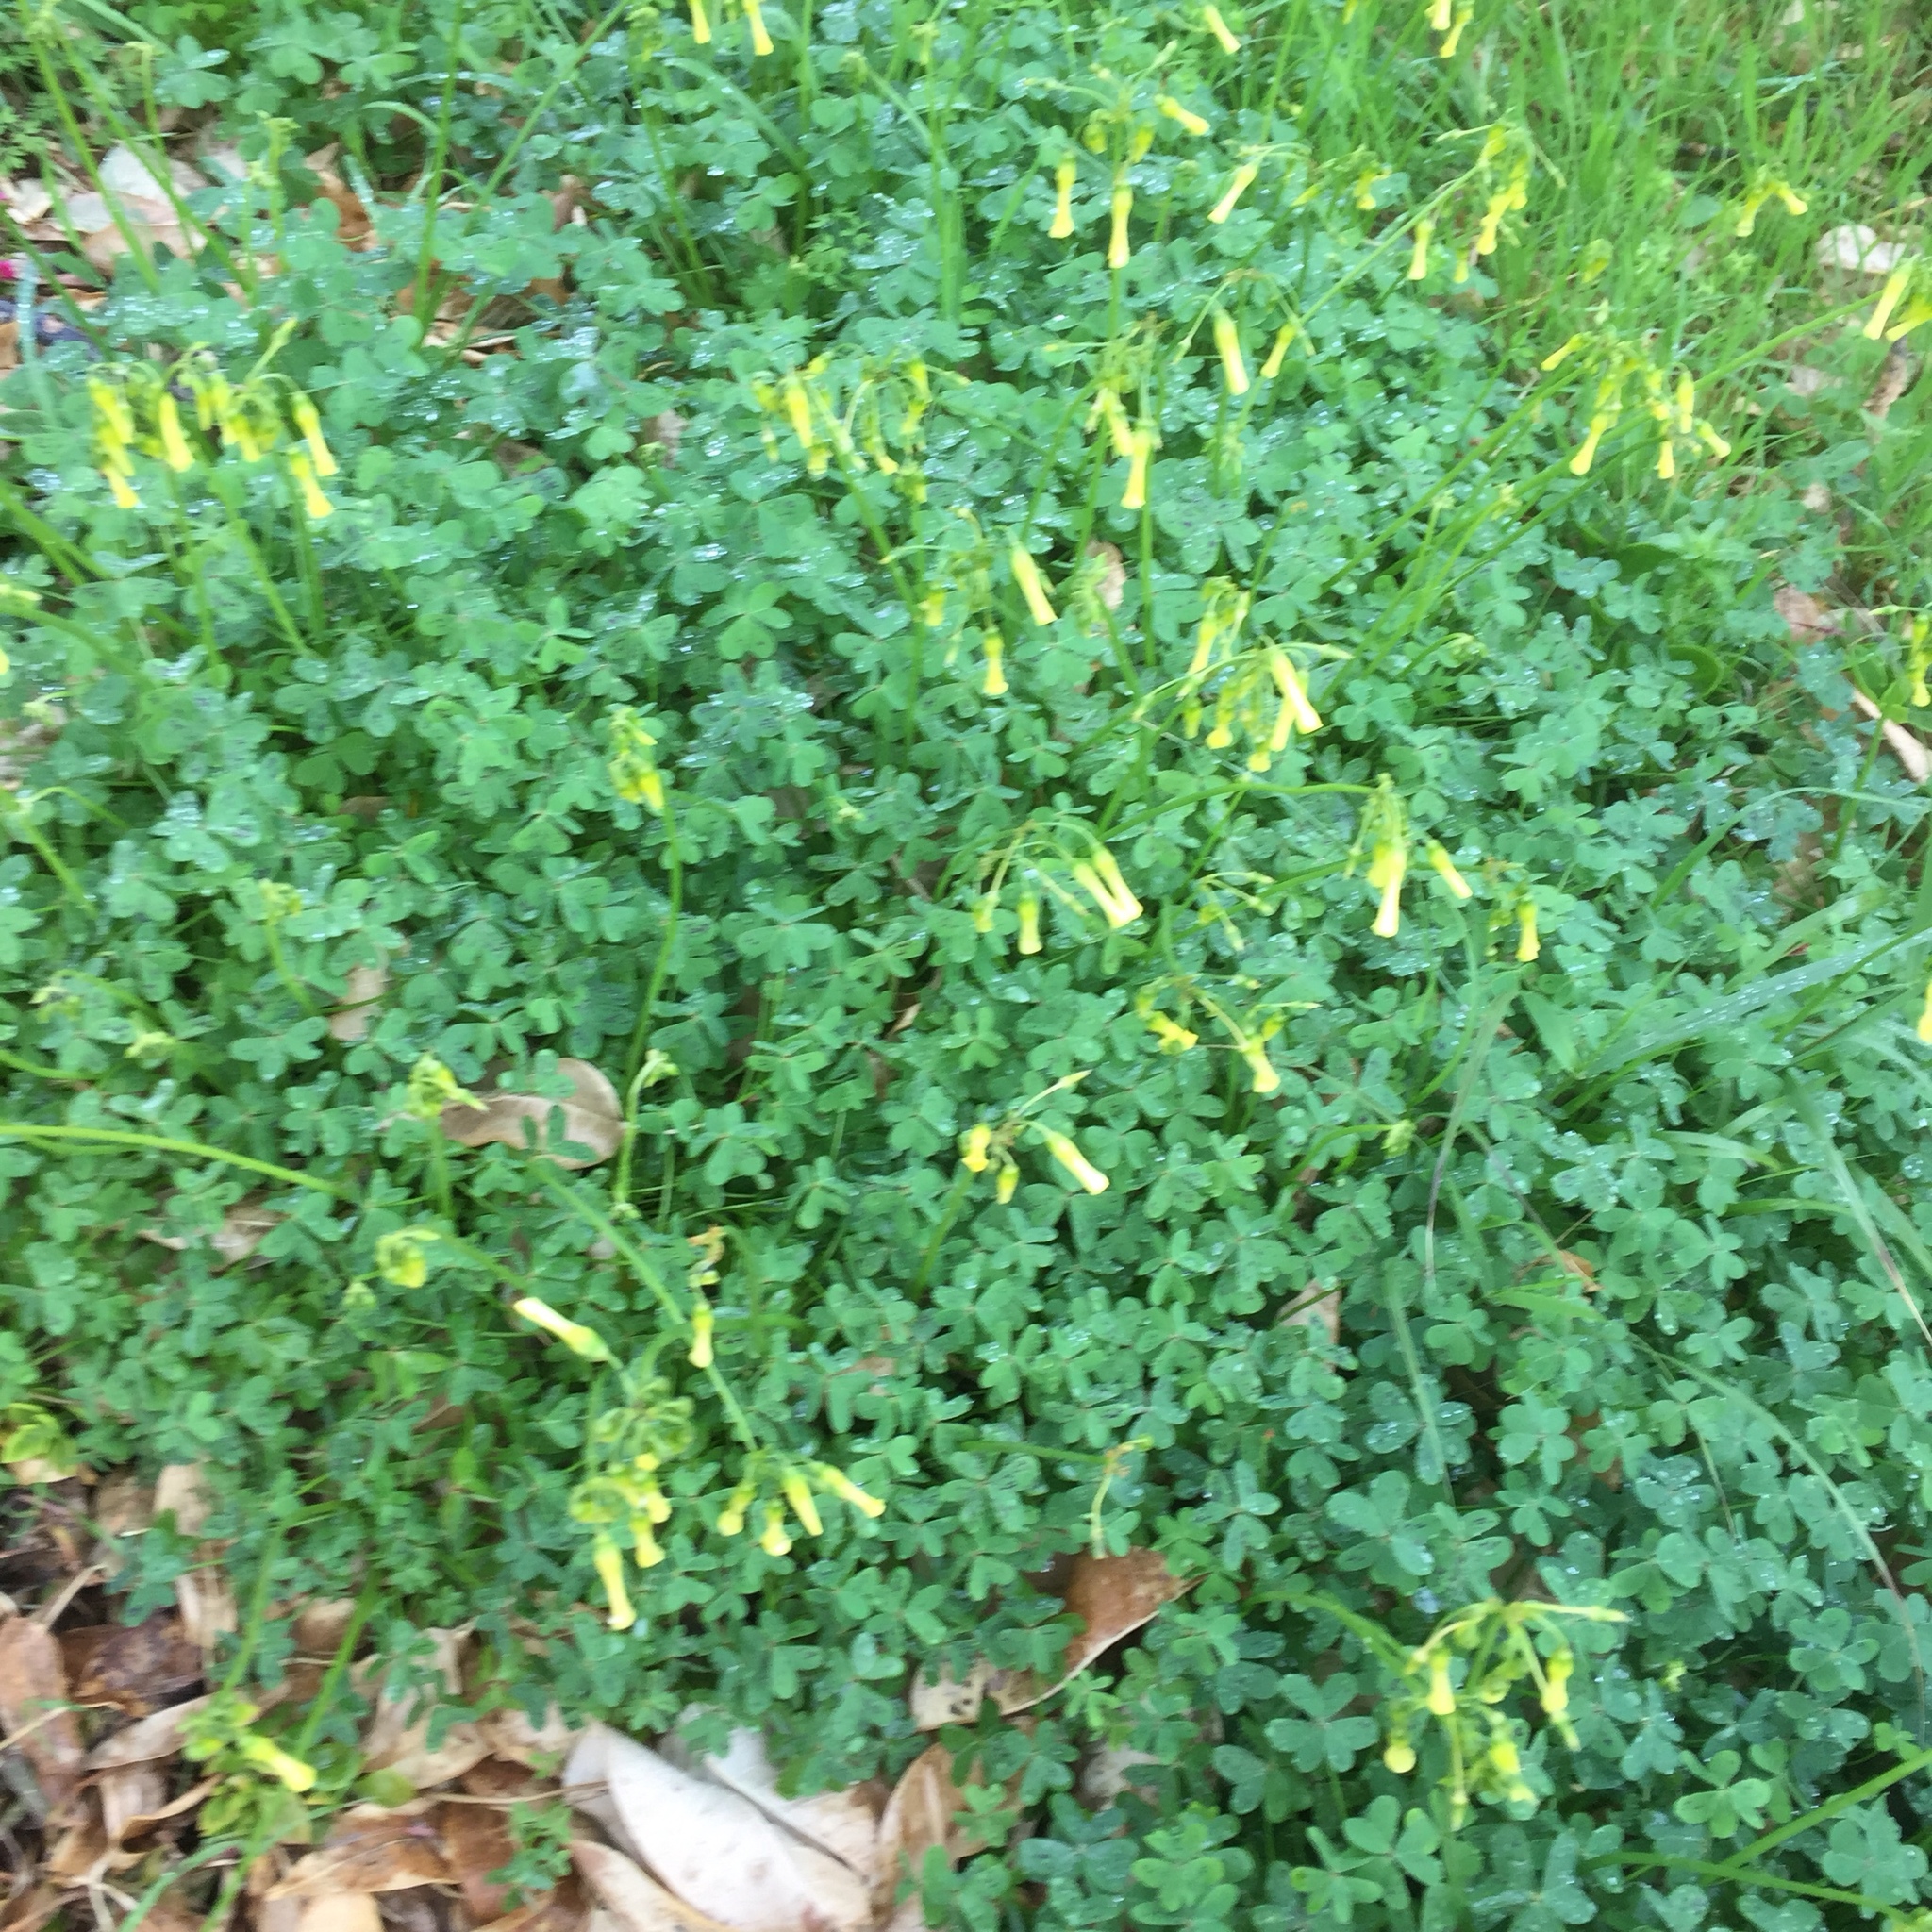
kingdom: Plantae
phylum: Tracheophyta
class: Magnoliopsida
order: Oxalidales
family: Oxalidaceae
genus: Oxalis
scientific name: Oxalis pes-caprae
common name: Bermuda-buttercup
